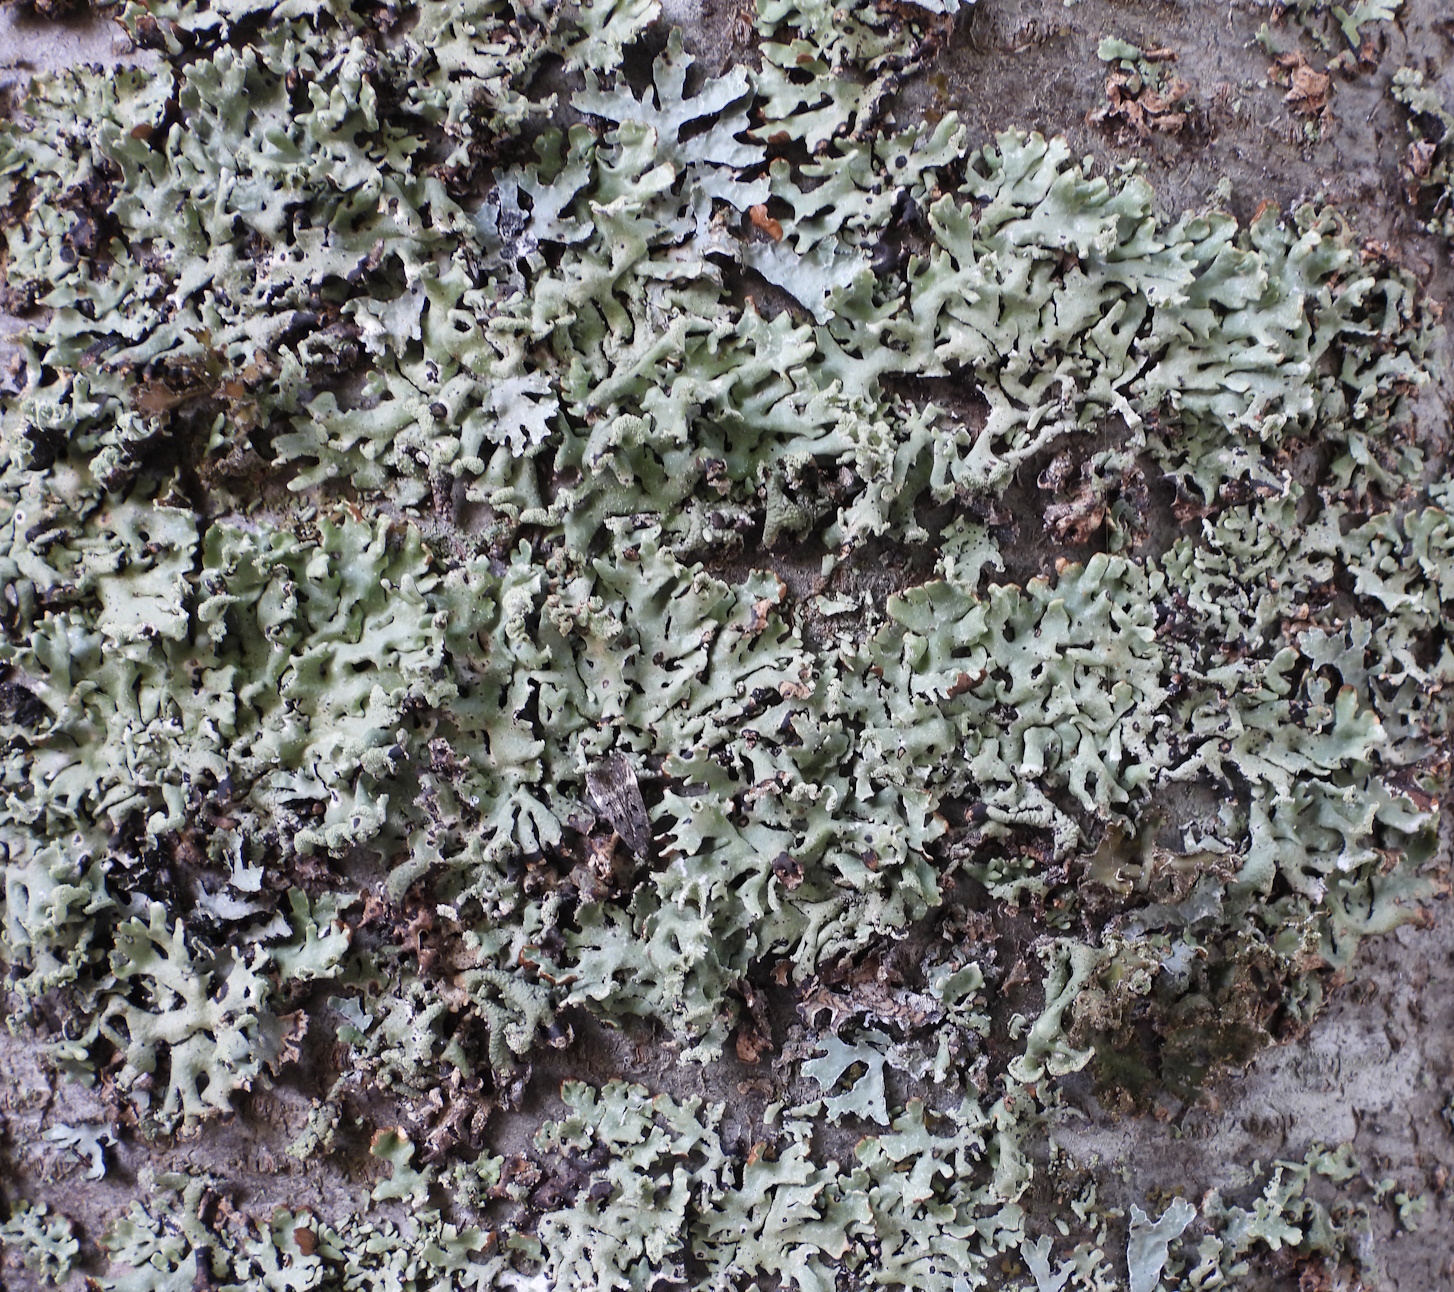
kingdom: Fungi
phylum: Ascomycota
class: Lecanoromycetes
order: Lecanorales
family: Parmeliaceae
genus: Hypogymnia
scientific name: Hypogymnia physodes
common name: Dark crottle
